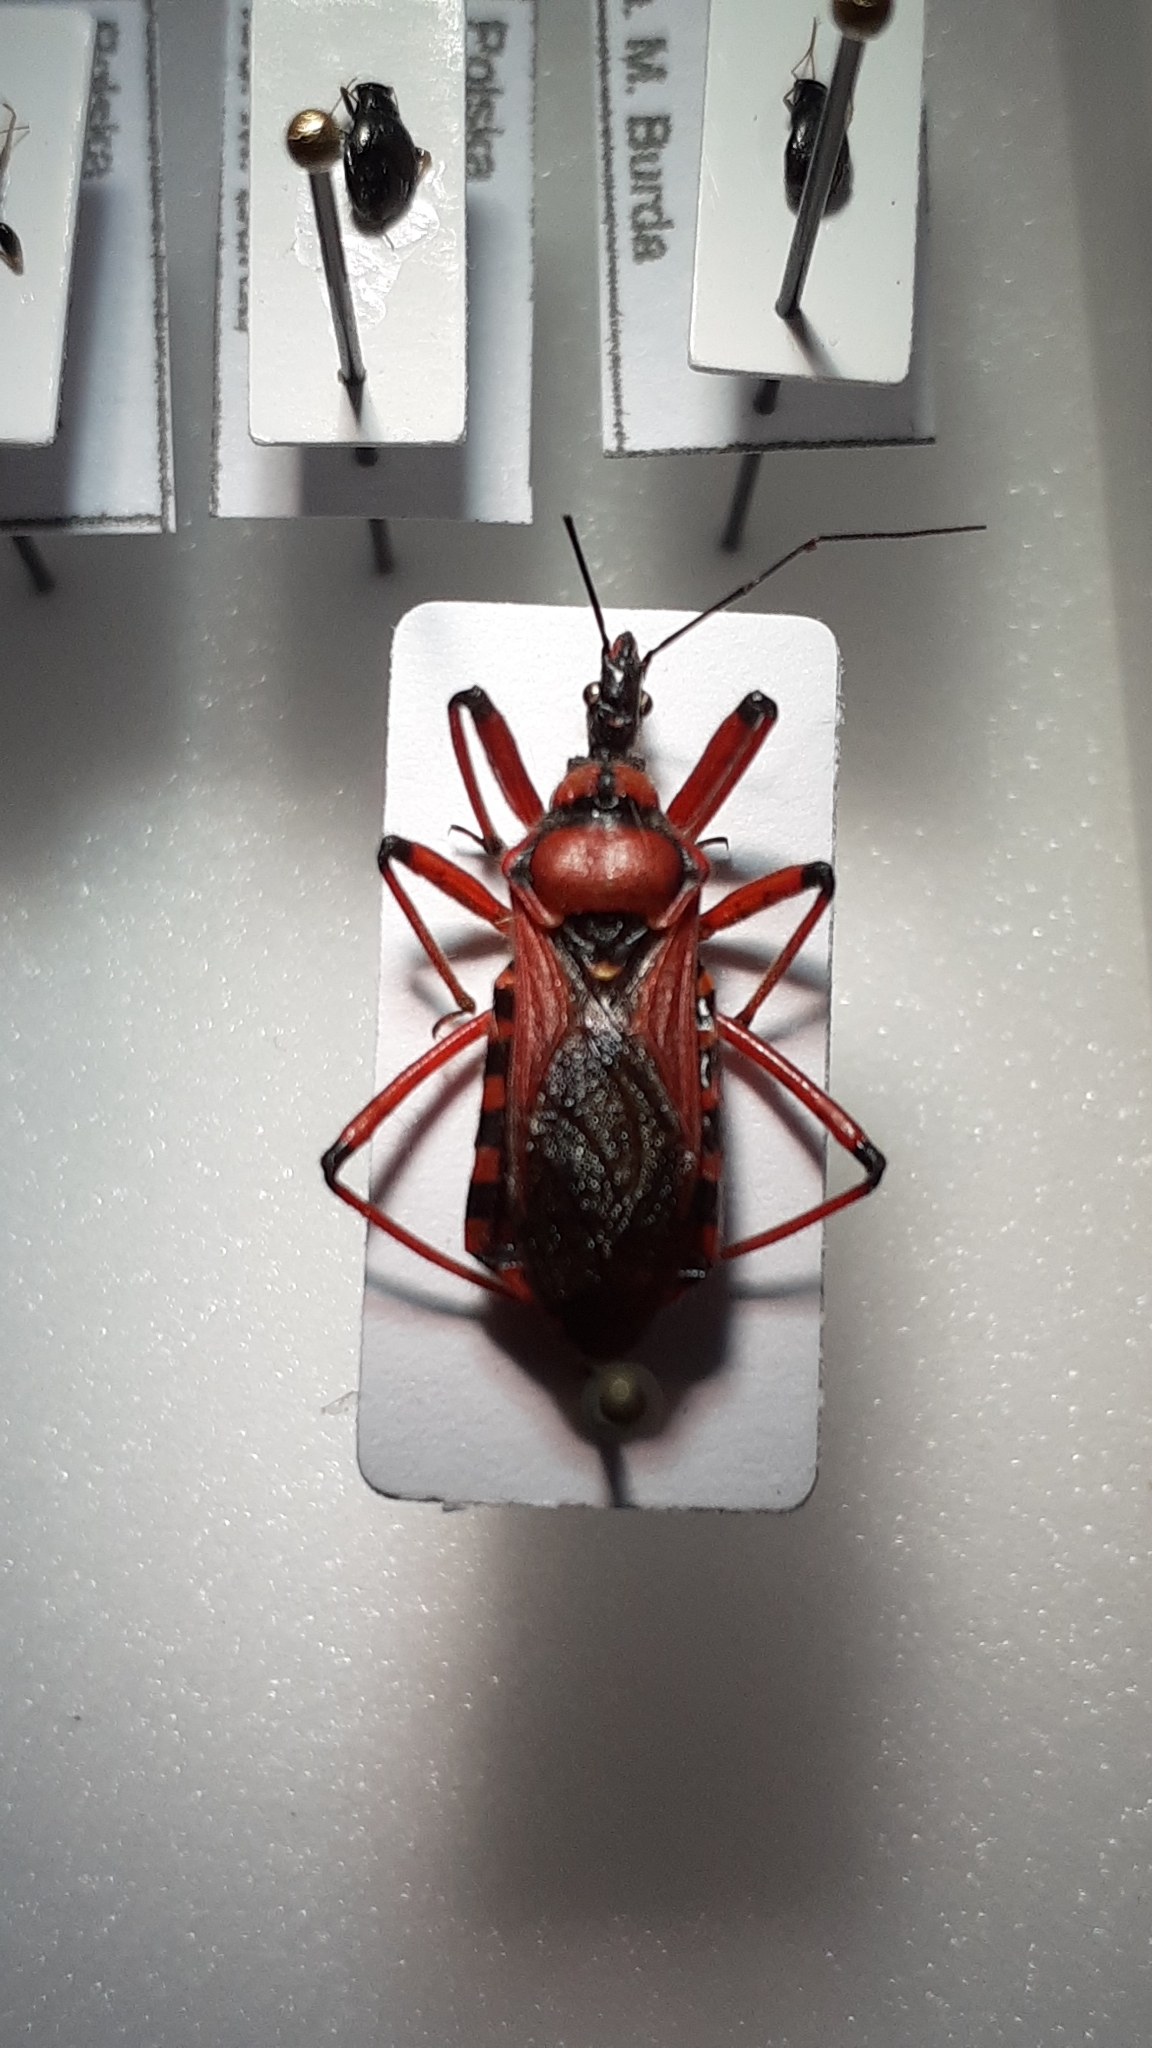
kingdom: Animalia
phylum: Arthropoda
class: Insecta
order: Hemiptera
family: Reduviidae
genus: Rhynocoris
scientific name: Rhynocoris iracundus
